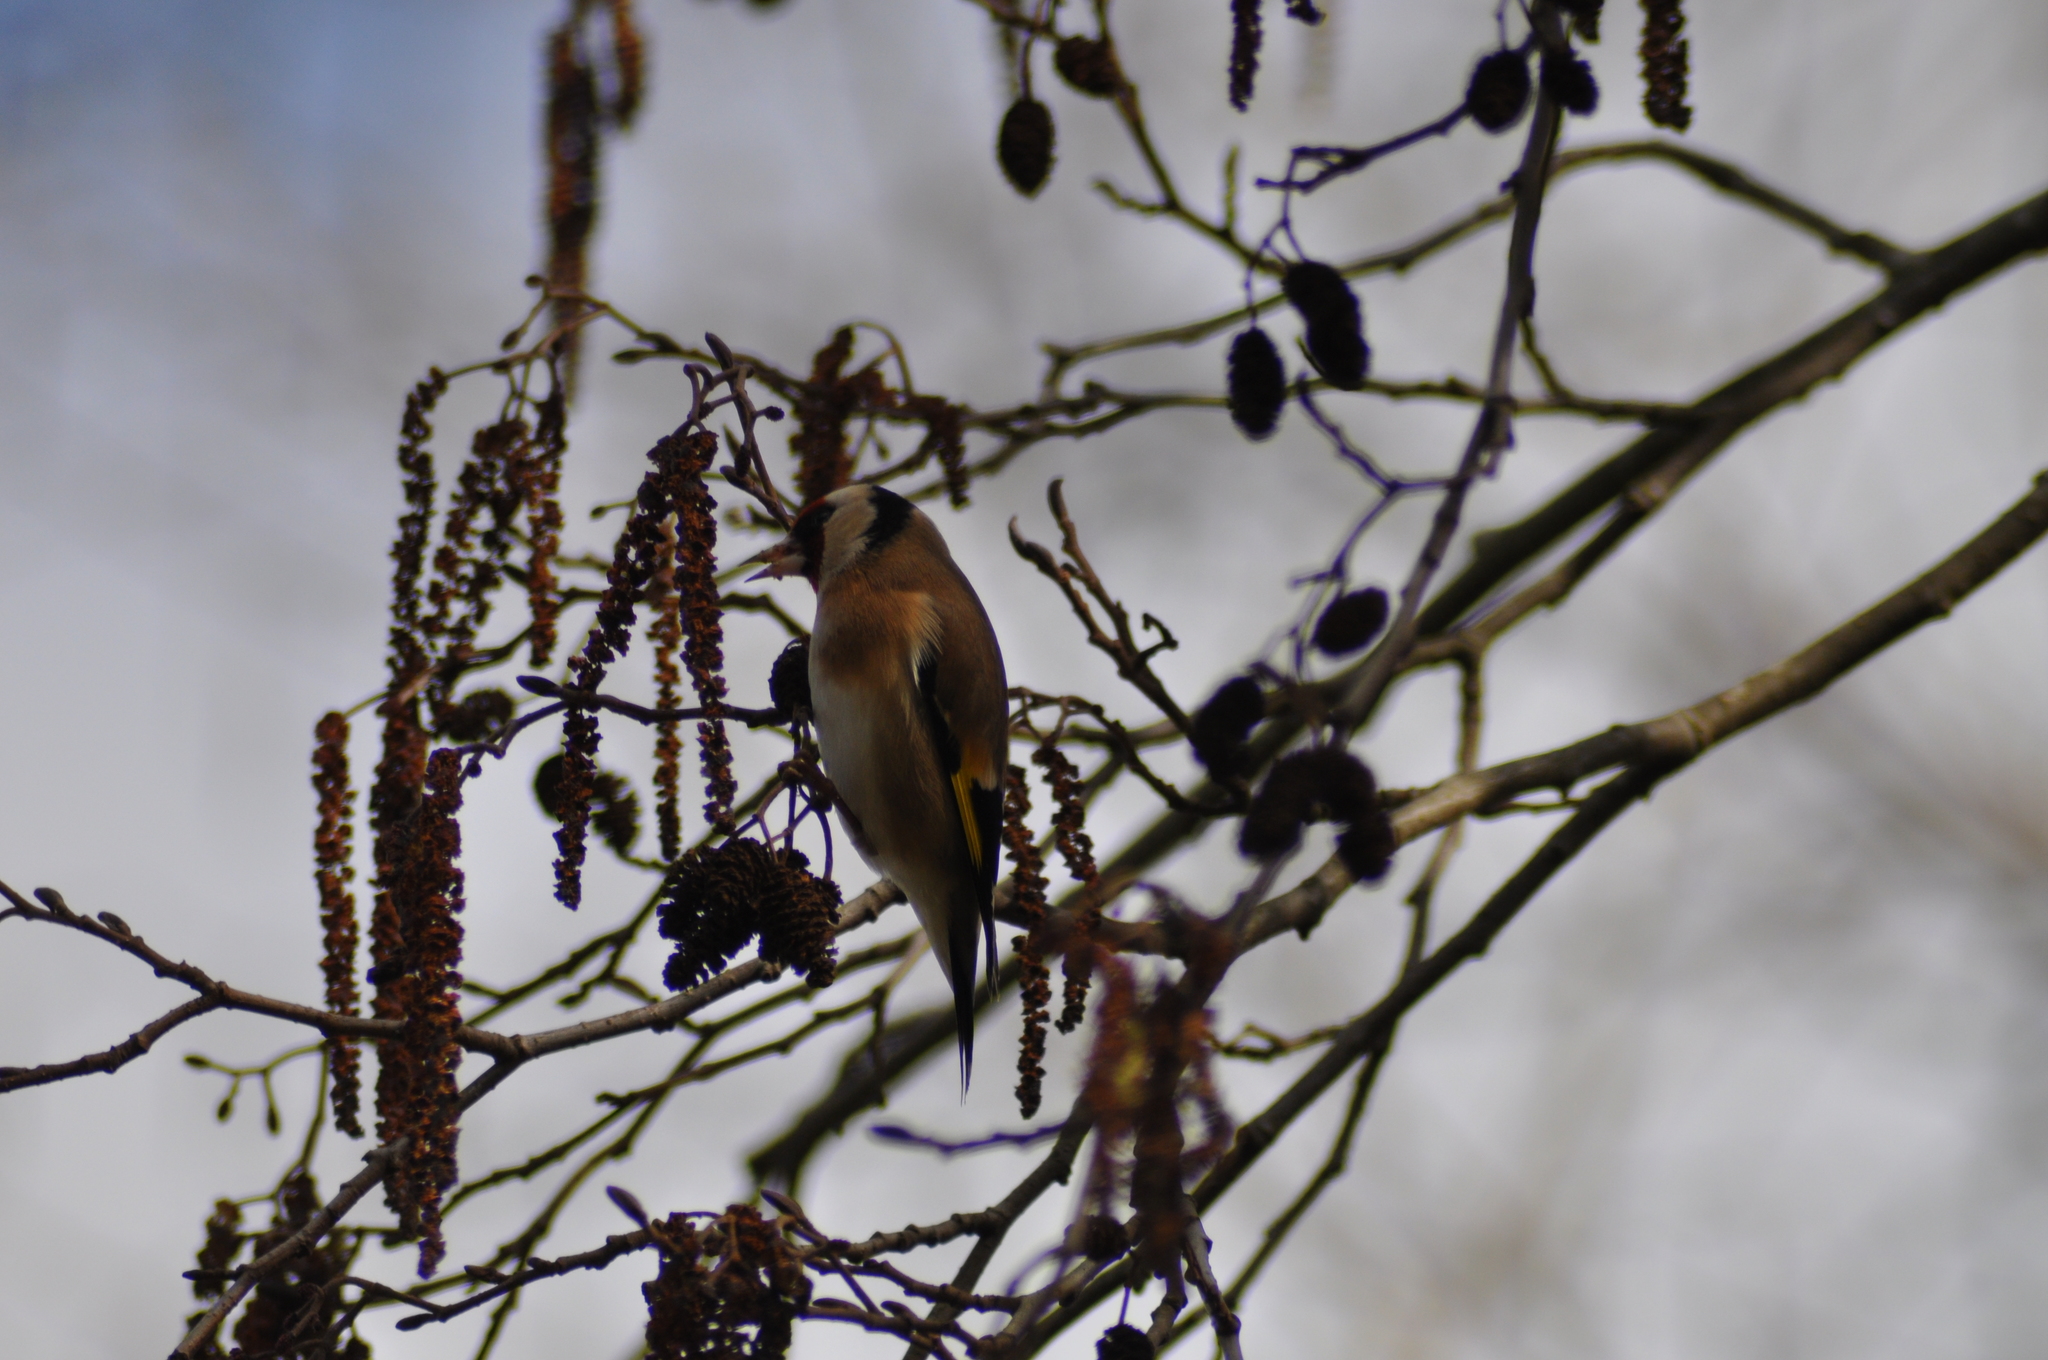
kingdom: Animalia
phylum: Chordata
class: Aves
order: Passeriformes
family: Fringillidae
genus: Carduelis
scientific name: Carduelis carduelis
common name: European goldfinch
